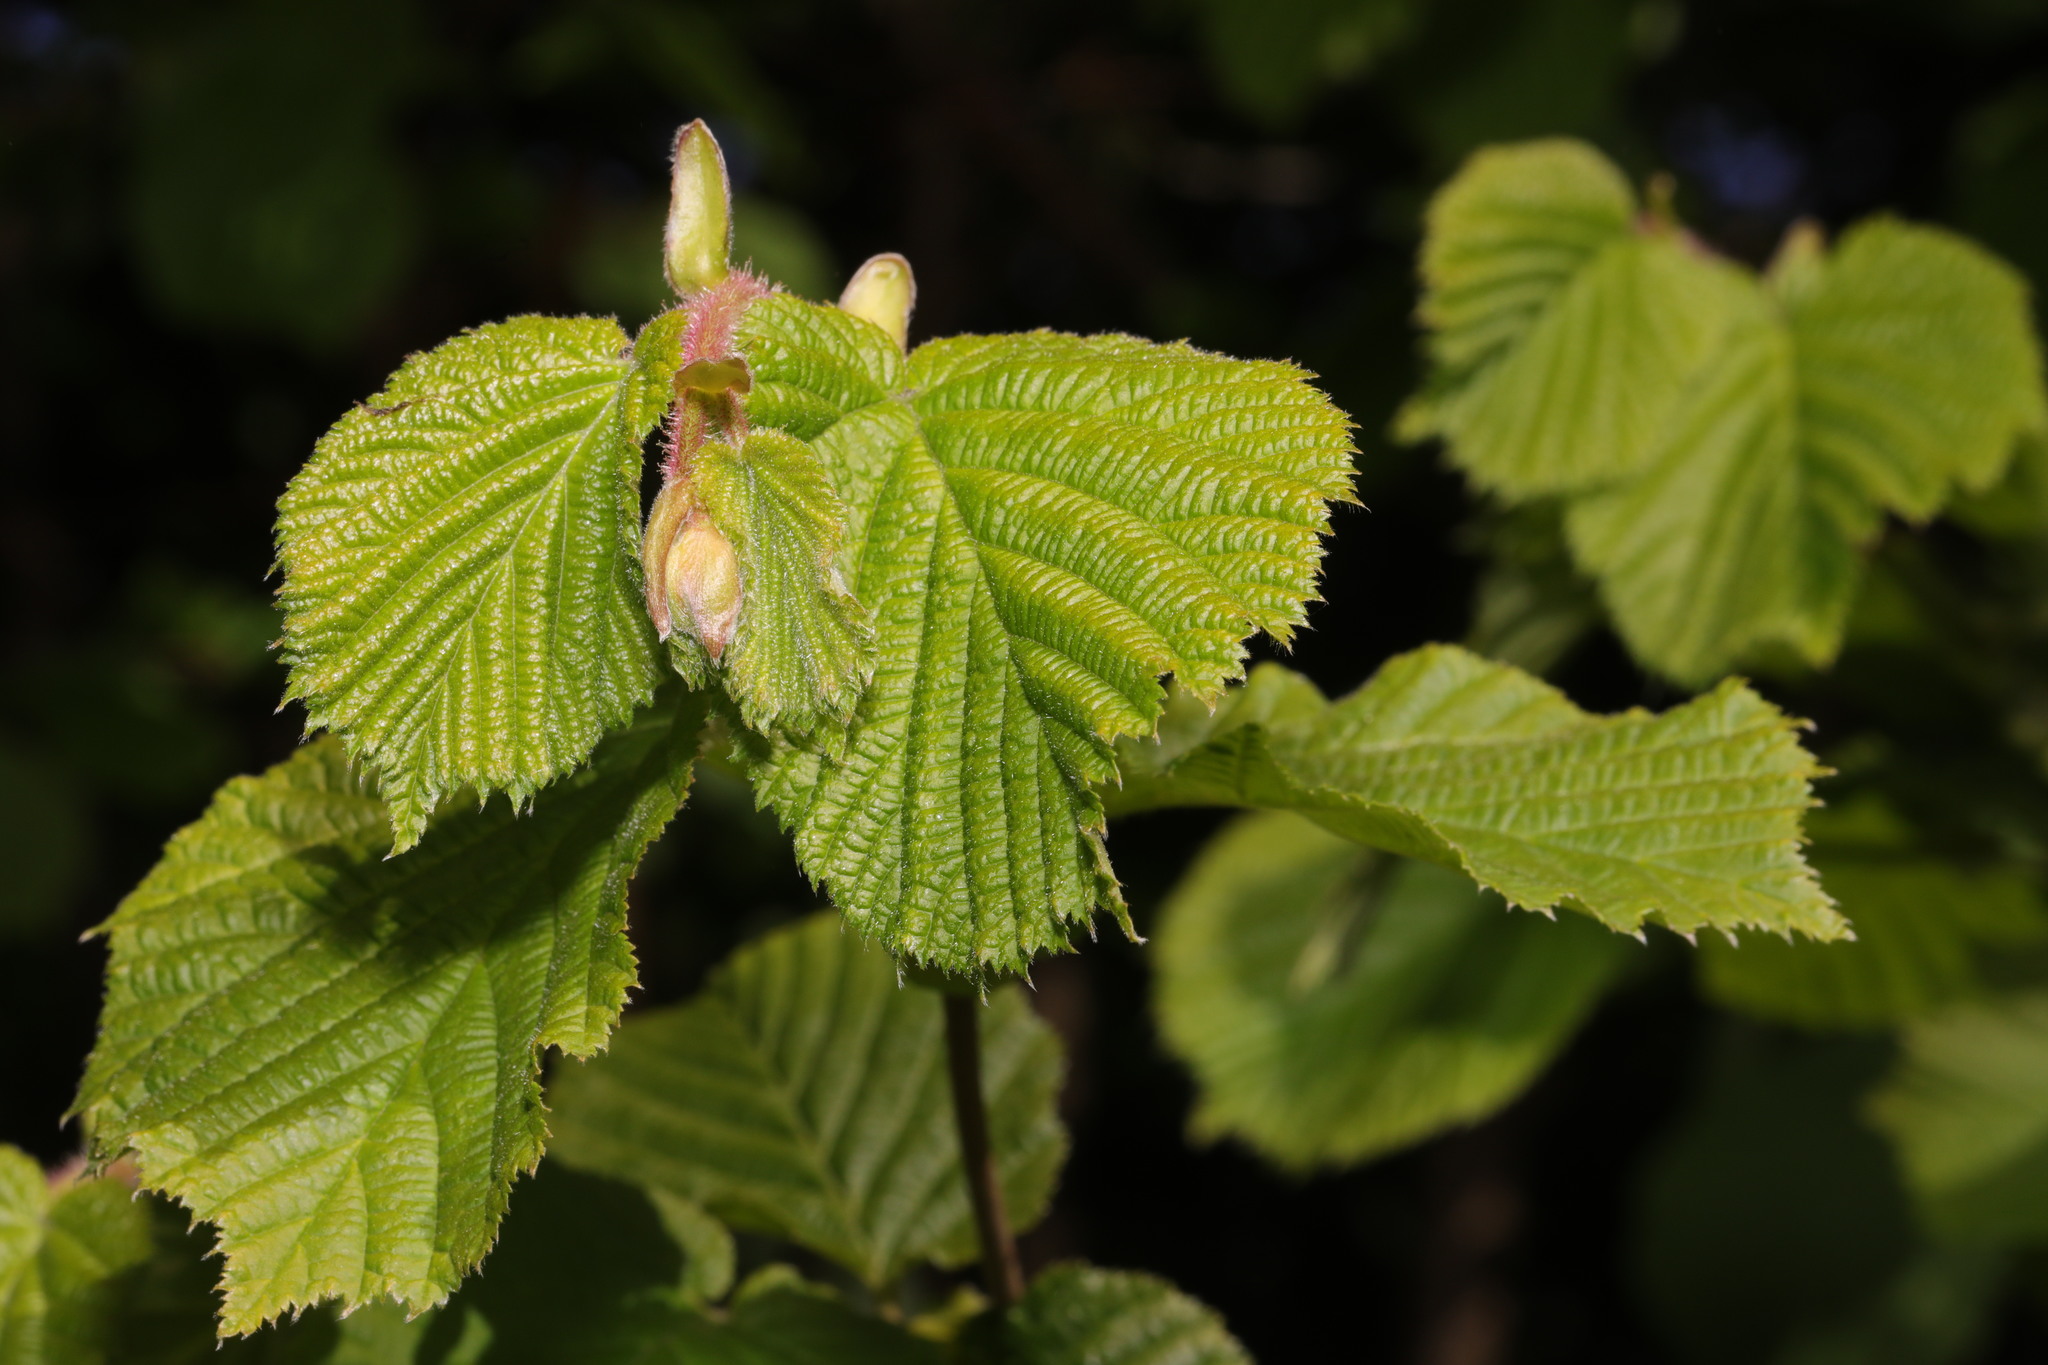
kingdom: Plantae
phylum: Tracheophyta
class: Magnoliopsida
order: Fagales
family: Betulaceae
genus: Corylus
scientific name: Corylus avellana
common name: European hazel
